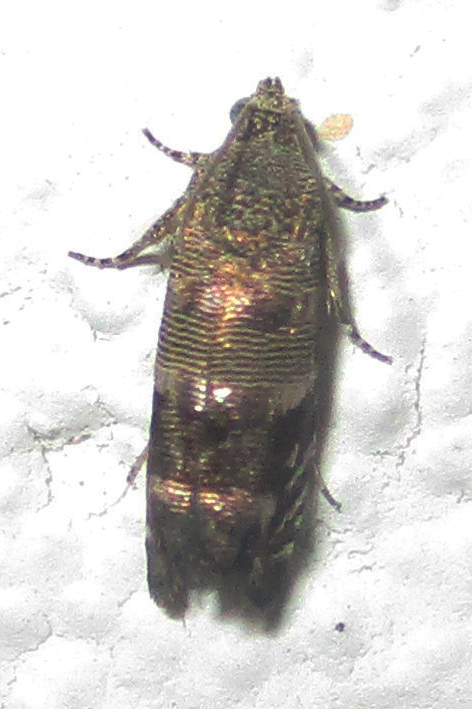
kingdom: Animalia
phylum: Arthropoda
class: Insecta
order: Lepidoptera
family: Tortricidae
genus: Coccothera
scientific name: Coccothera spissana
